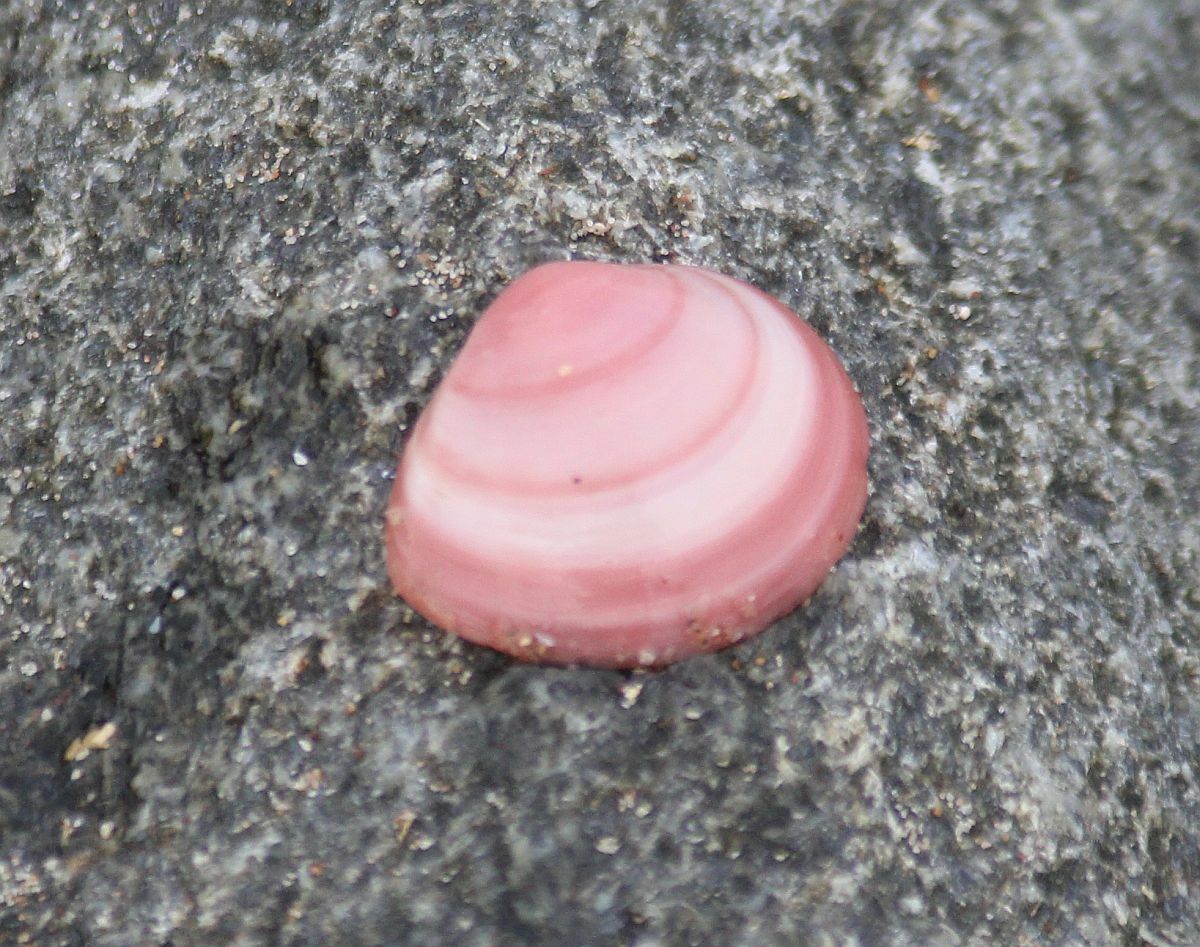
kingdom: Animalia
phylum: Mollusca
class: Bivalvia
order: Cardiida
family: Tellinidae
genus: Macoma
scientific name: Macoma balthica
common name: Baltic tellin
